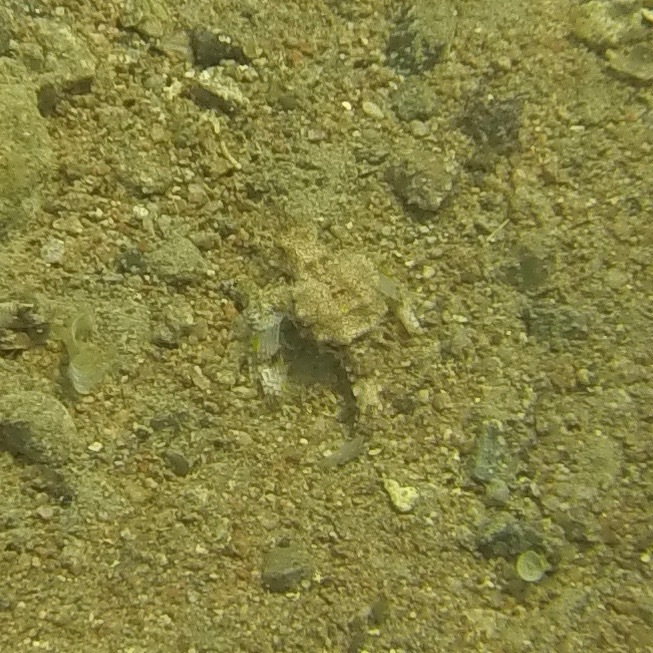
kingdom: Animalia
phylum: Chordata
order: Gasterosteiformes
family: Pegasidae
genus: Eurypegasus
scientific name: Eurypegasus draconis
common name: Short dragonfish
